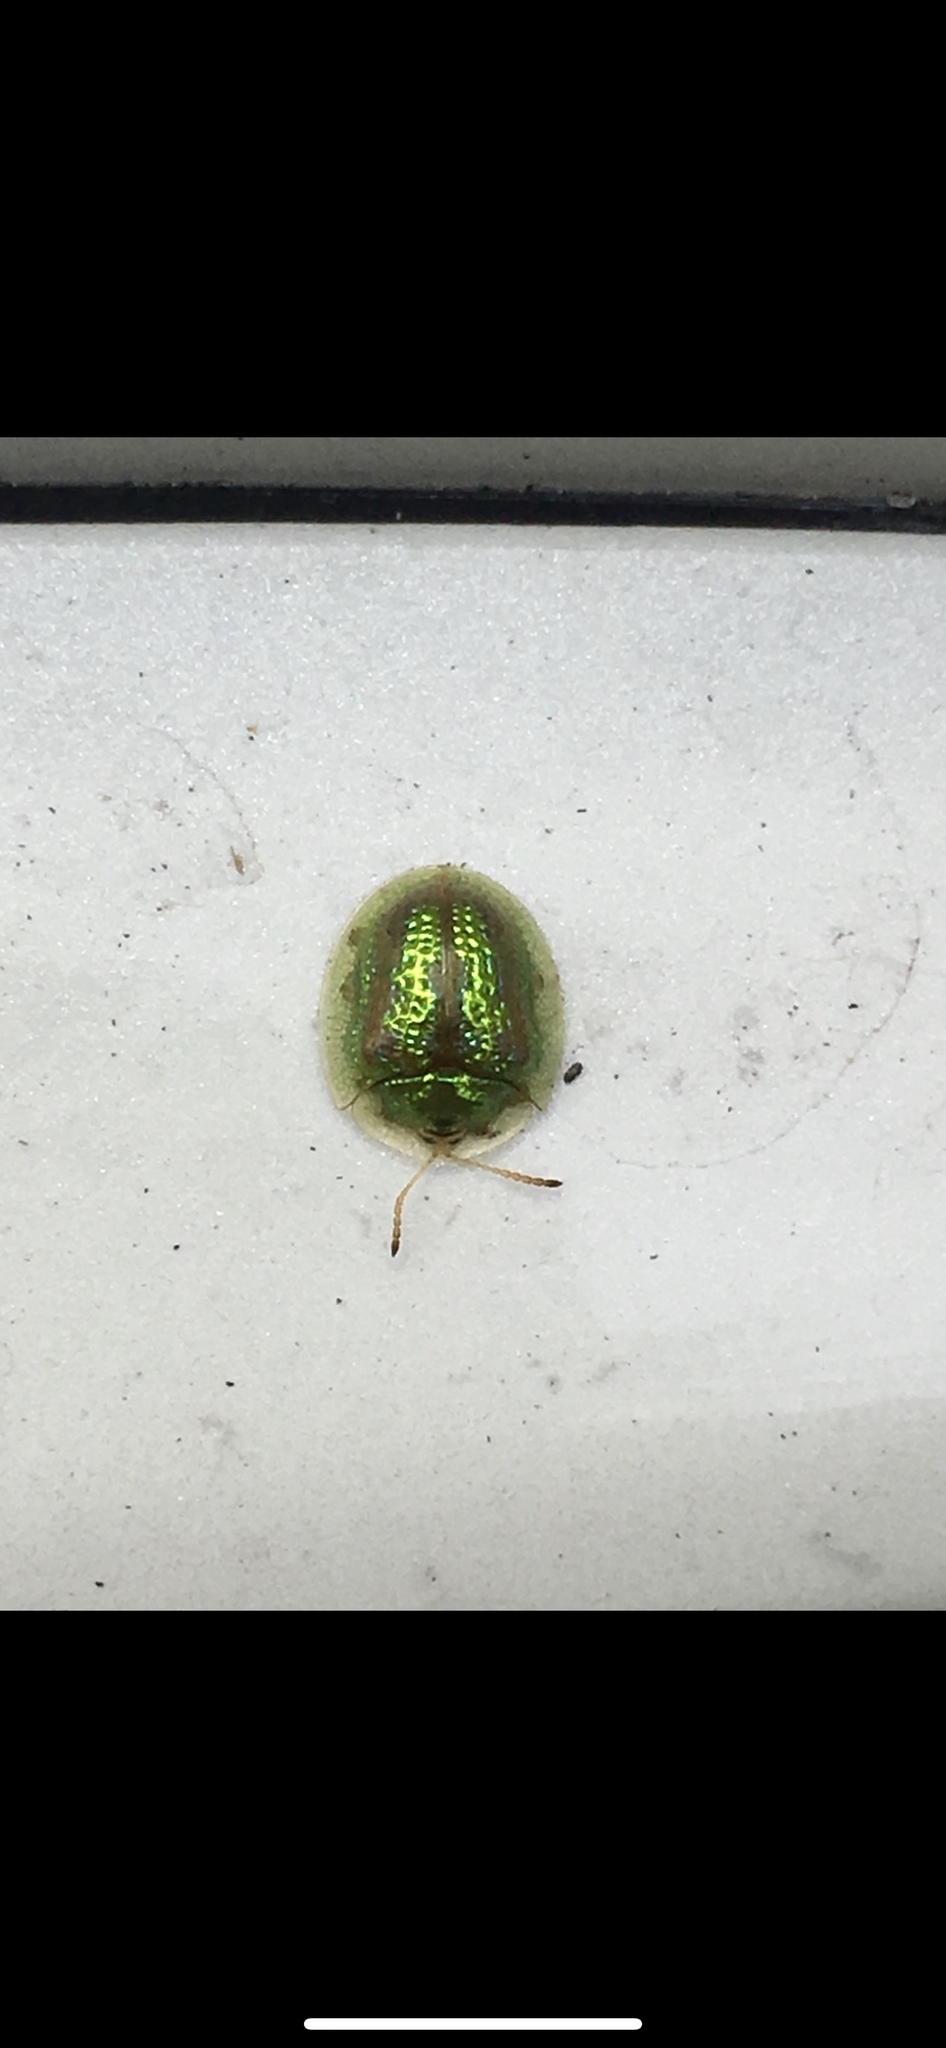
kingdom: Animalia
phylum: Arthropoda
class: Insecta
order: Coleoptera
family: Chrysomelidae
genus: Cassida
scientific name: Cassida circumdata
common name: Tortoise beetle
